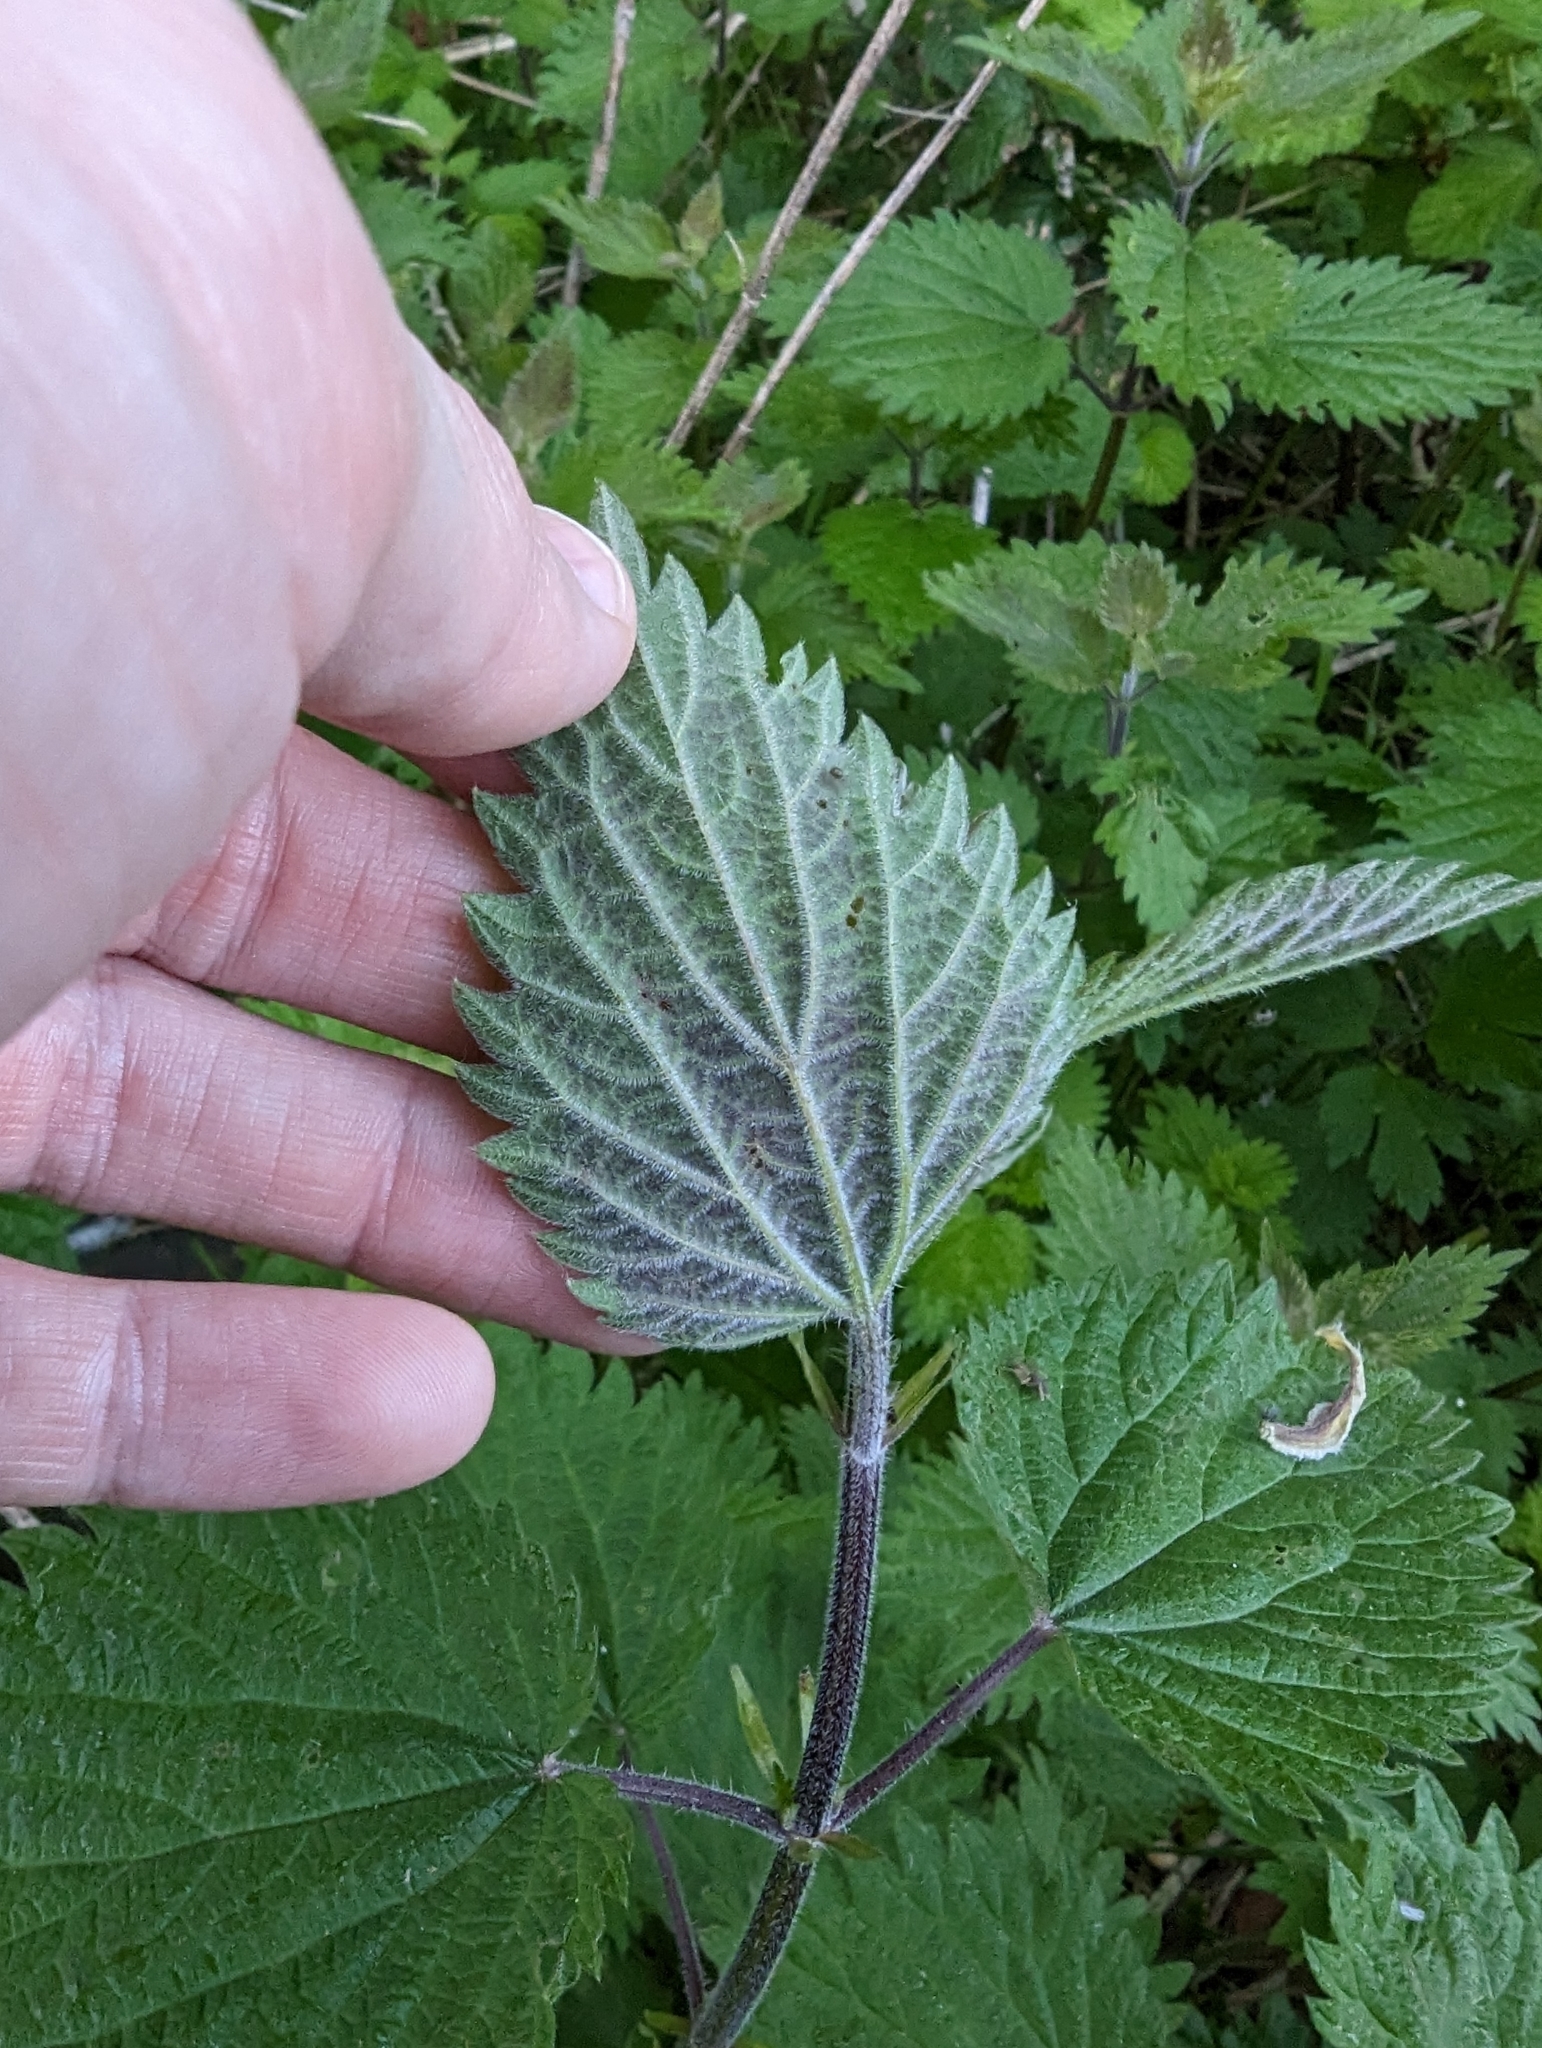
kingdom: Plantae
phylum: Tracheophyta
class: Magnoliopsida
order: Rosales
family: Urticaceae
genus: Urtica
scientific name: Urtica gracilis
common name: Slender stinging nettle
